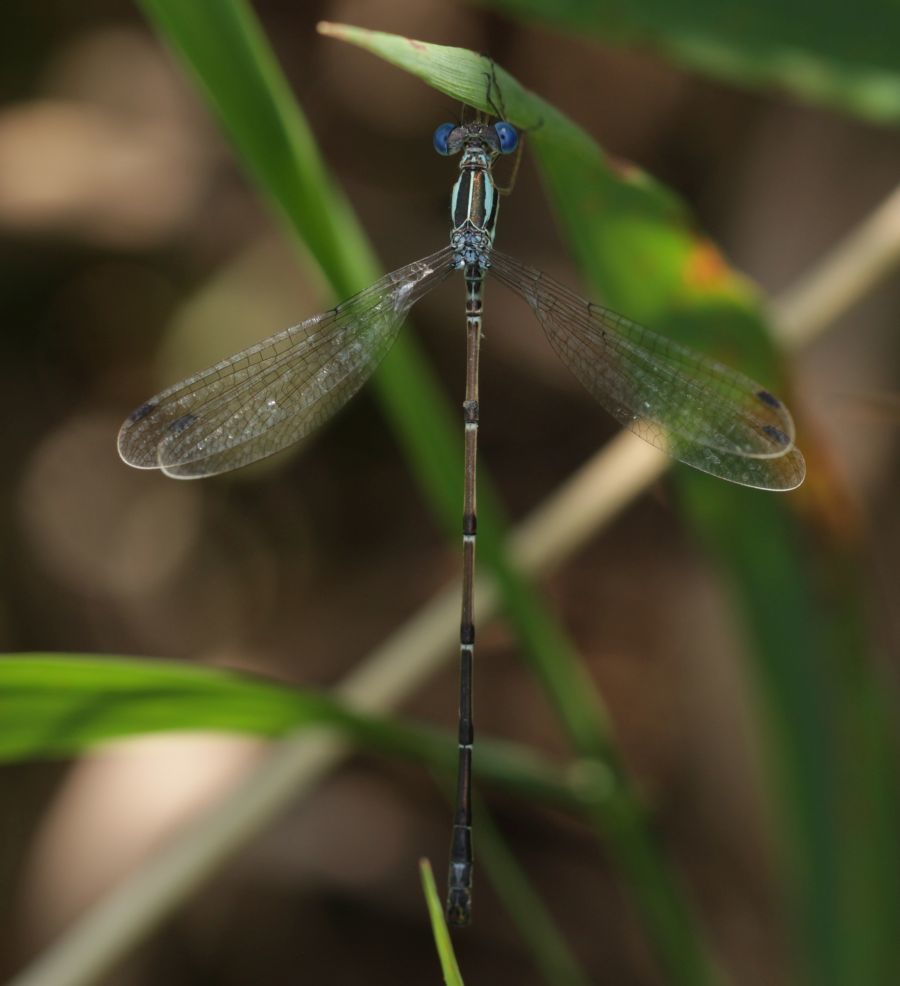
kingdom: Animalia
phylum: Arthropoda
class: Insecta
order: Odonata
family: Lestidae
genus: Lestes
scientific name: Lestes rectangularis
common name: Slender spreadwing
